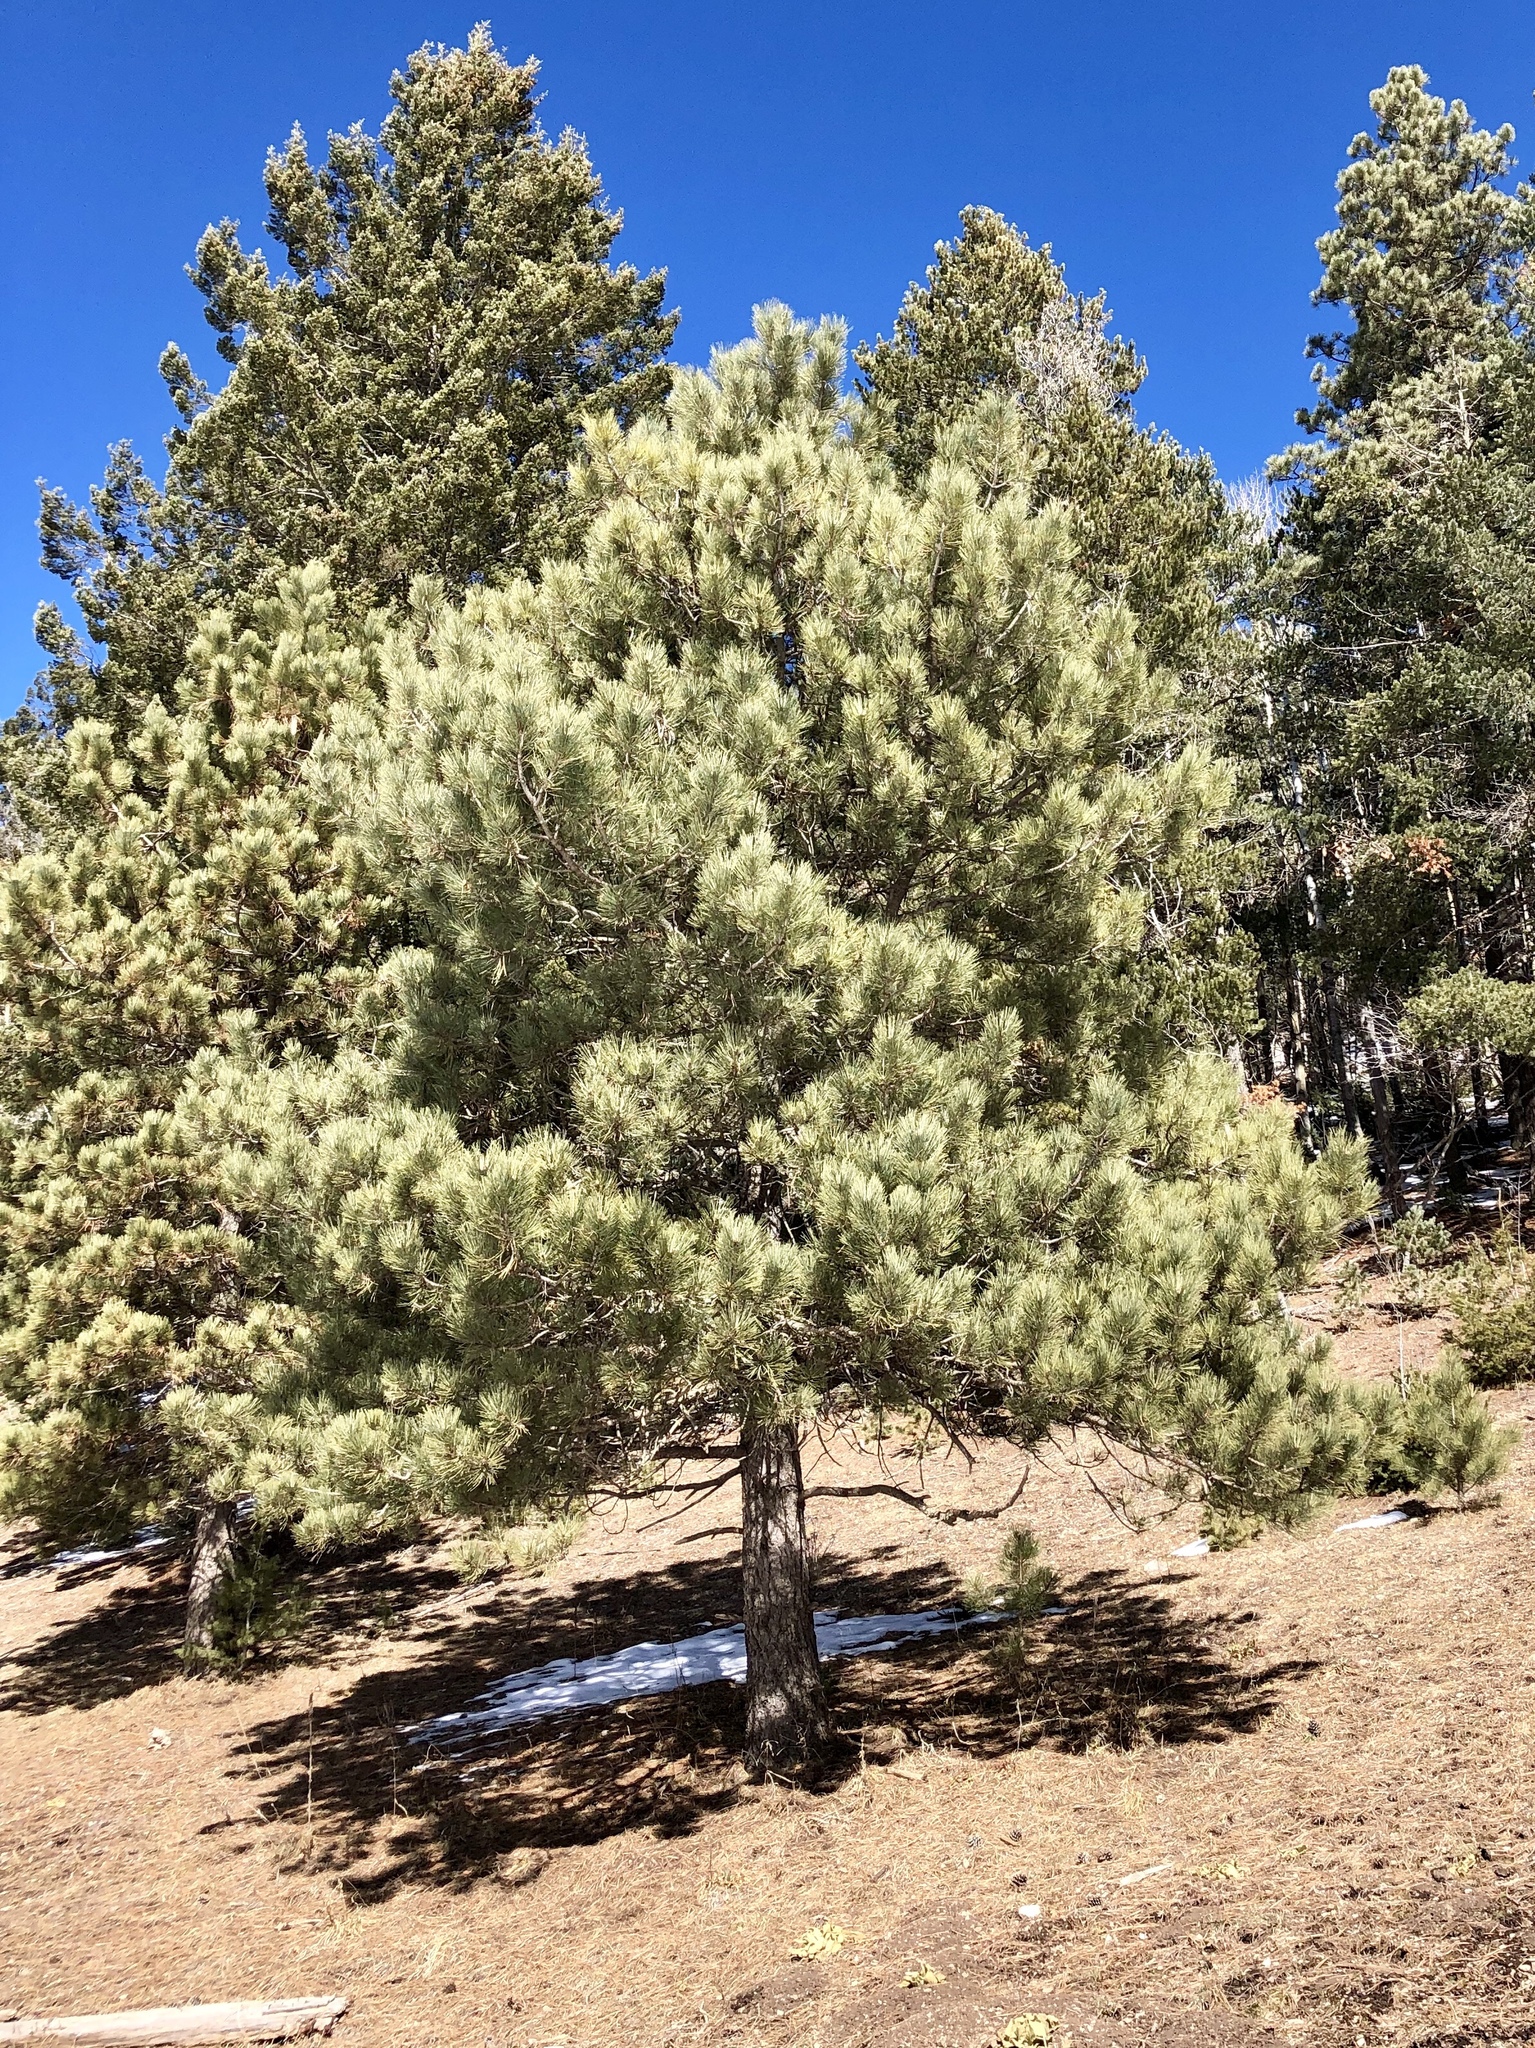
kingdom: Plantae
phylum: Tracheophyta
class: Pinopsida
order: Pinales
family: Pinaceae
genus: Pinus
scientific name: Pinus ponderosa
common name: Western yellow-pine
